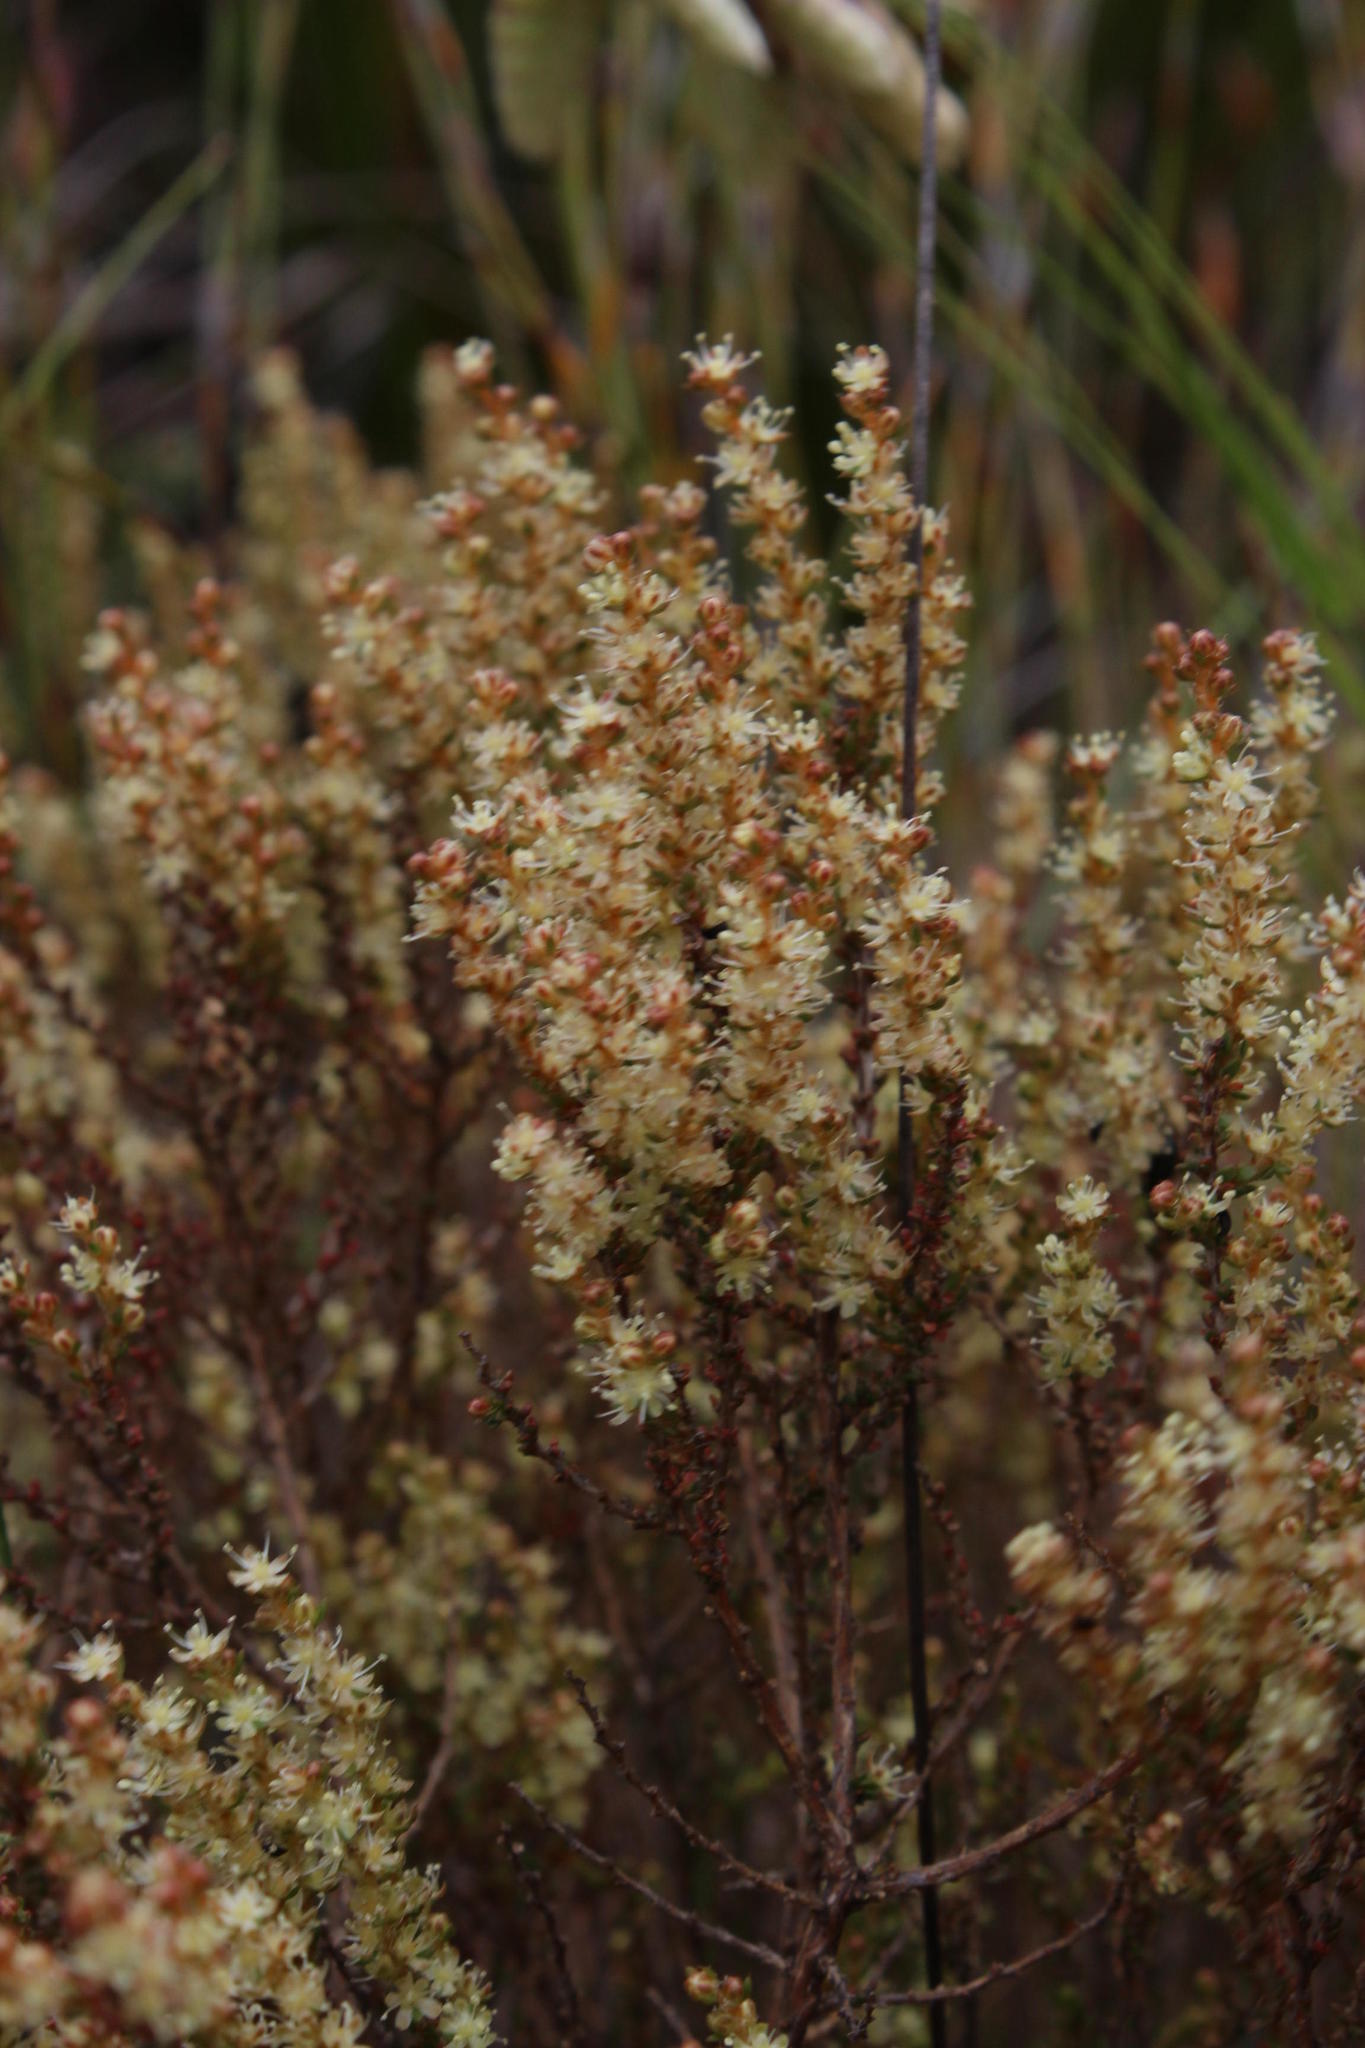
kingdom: Plantae
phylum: Tracheophyta
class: Magnoliopsida
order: Caryophyllales
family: Molluginaceae
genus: Polpoda
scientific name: Polpoda stipulacea
